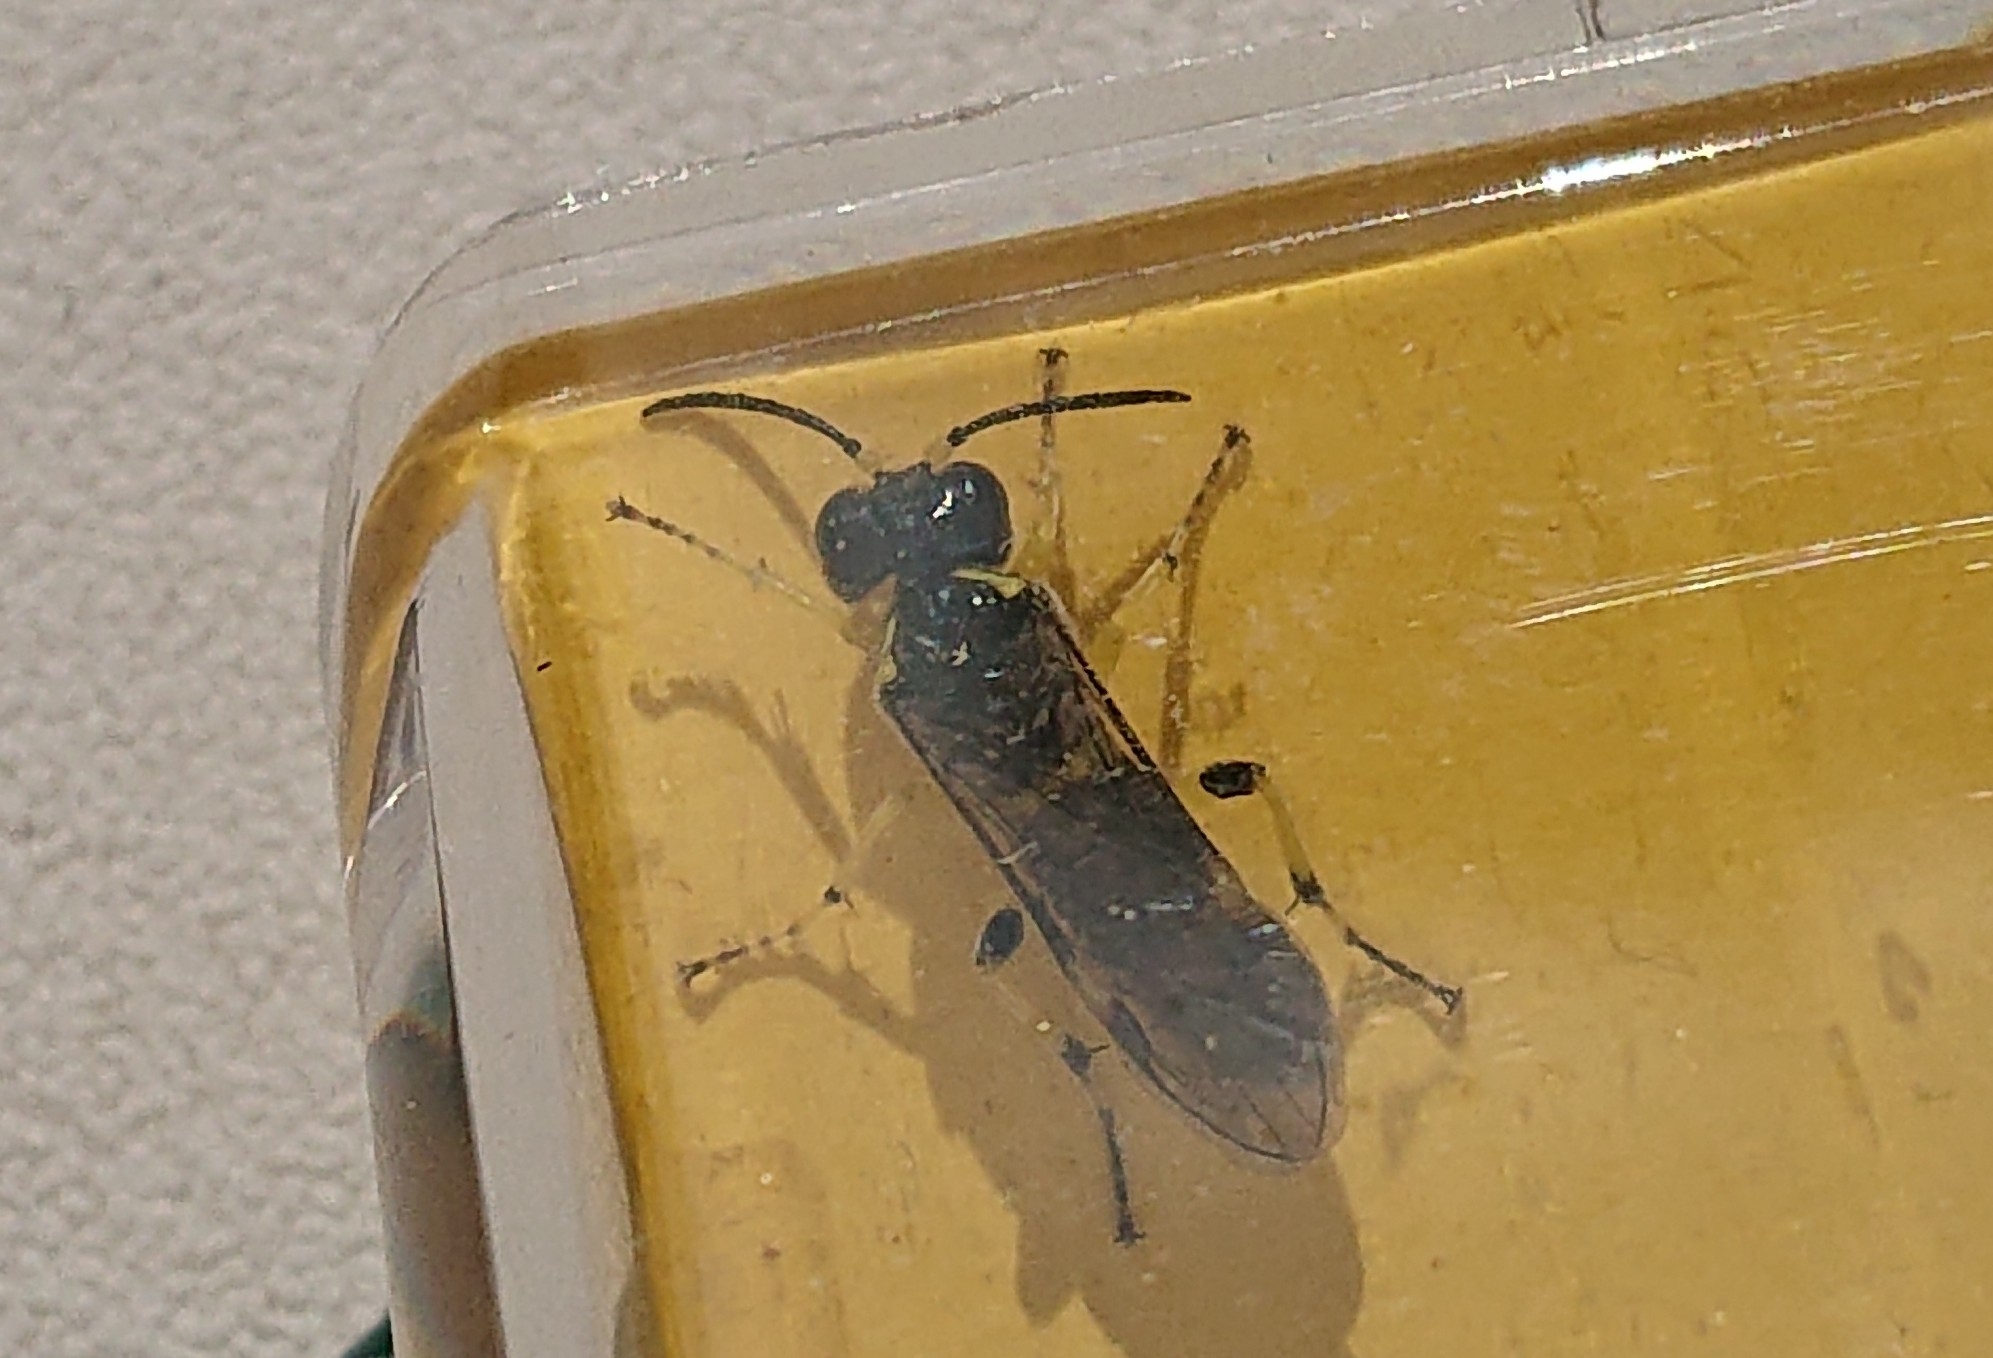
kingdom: Animalia
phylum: Arthropoda
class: Insecta
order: Hymenoptera
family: Tenthredinidae
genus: Tenthredo
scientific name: Tenthredo zonula
